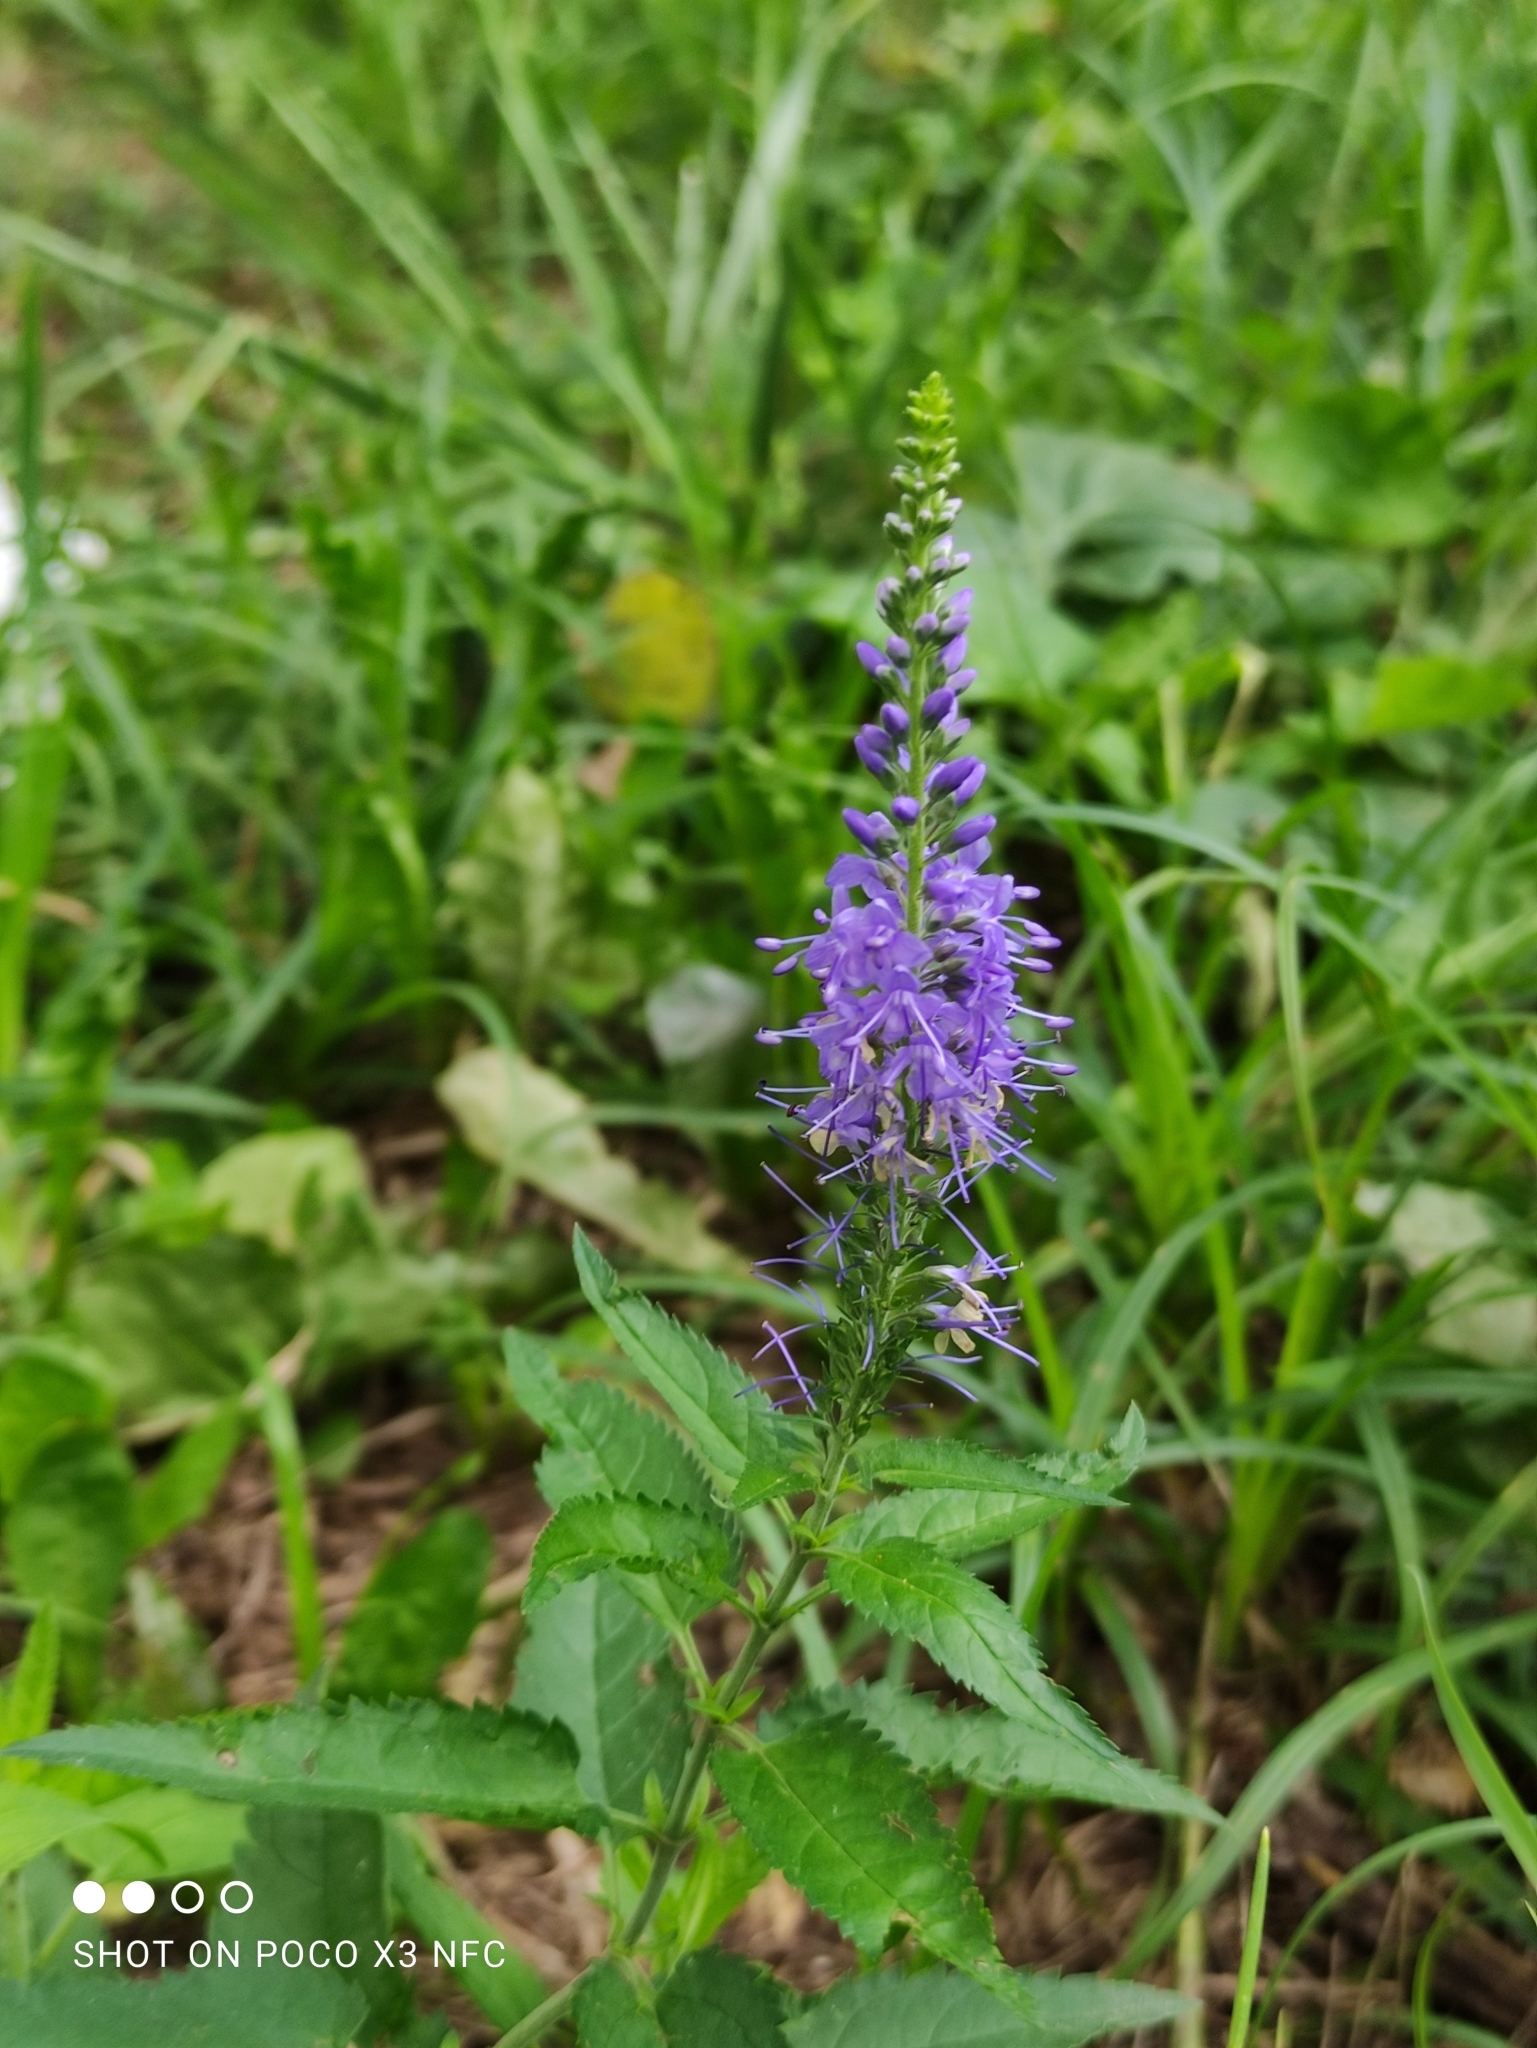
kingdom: Plantae
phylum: Tracheophyta
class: Magnoliopsida
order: Lamiales
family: Plantaginaceae
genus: Veronica
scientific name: Veronica longifolia
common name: Garden speedwell
